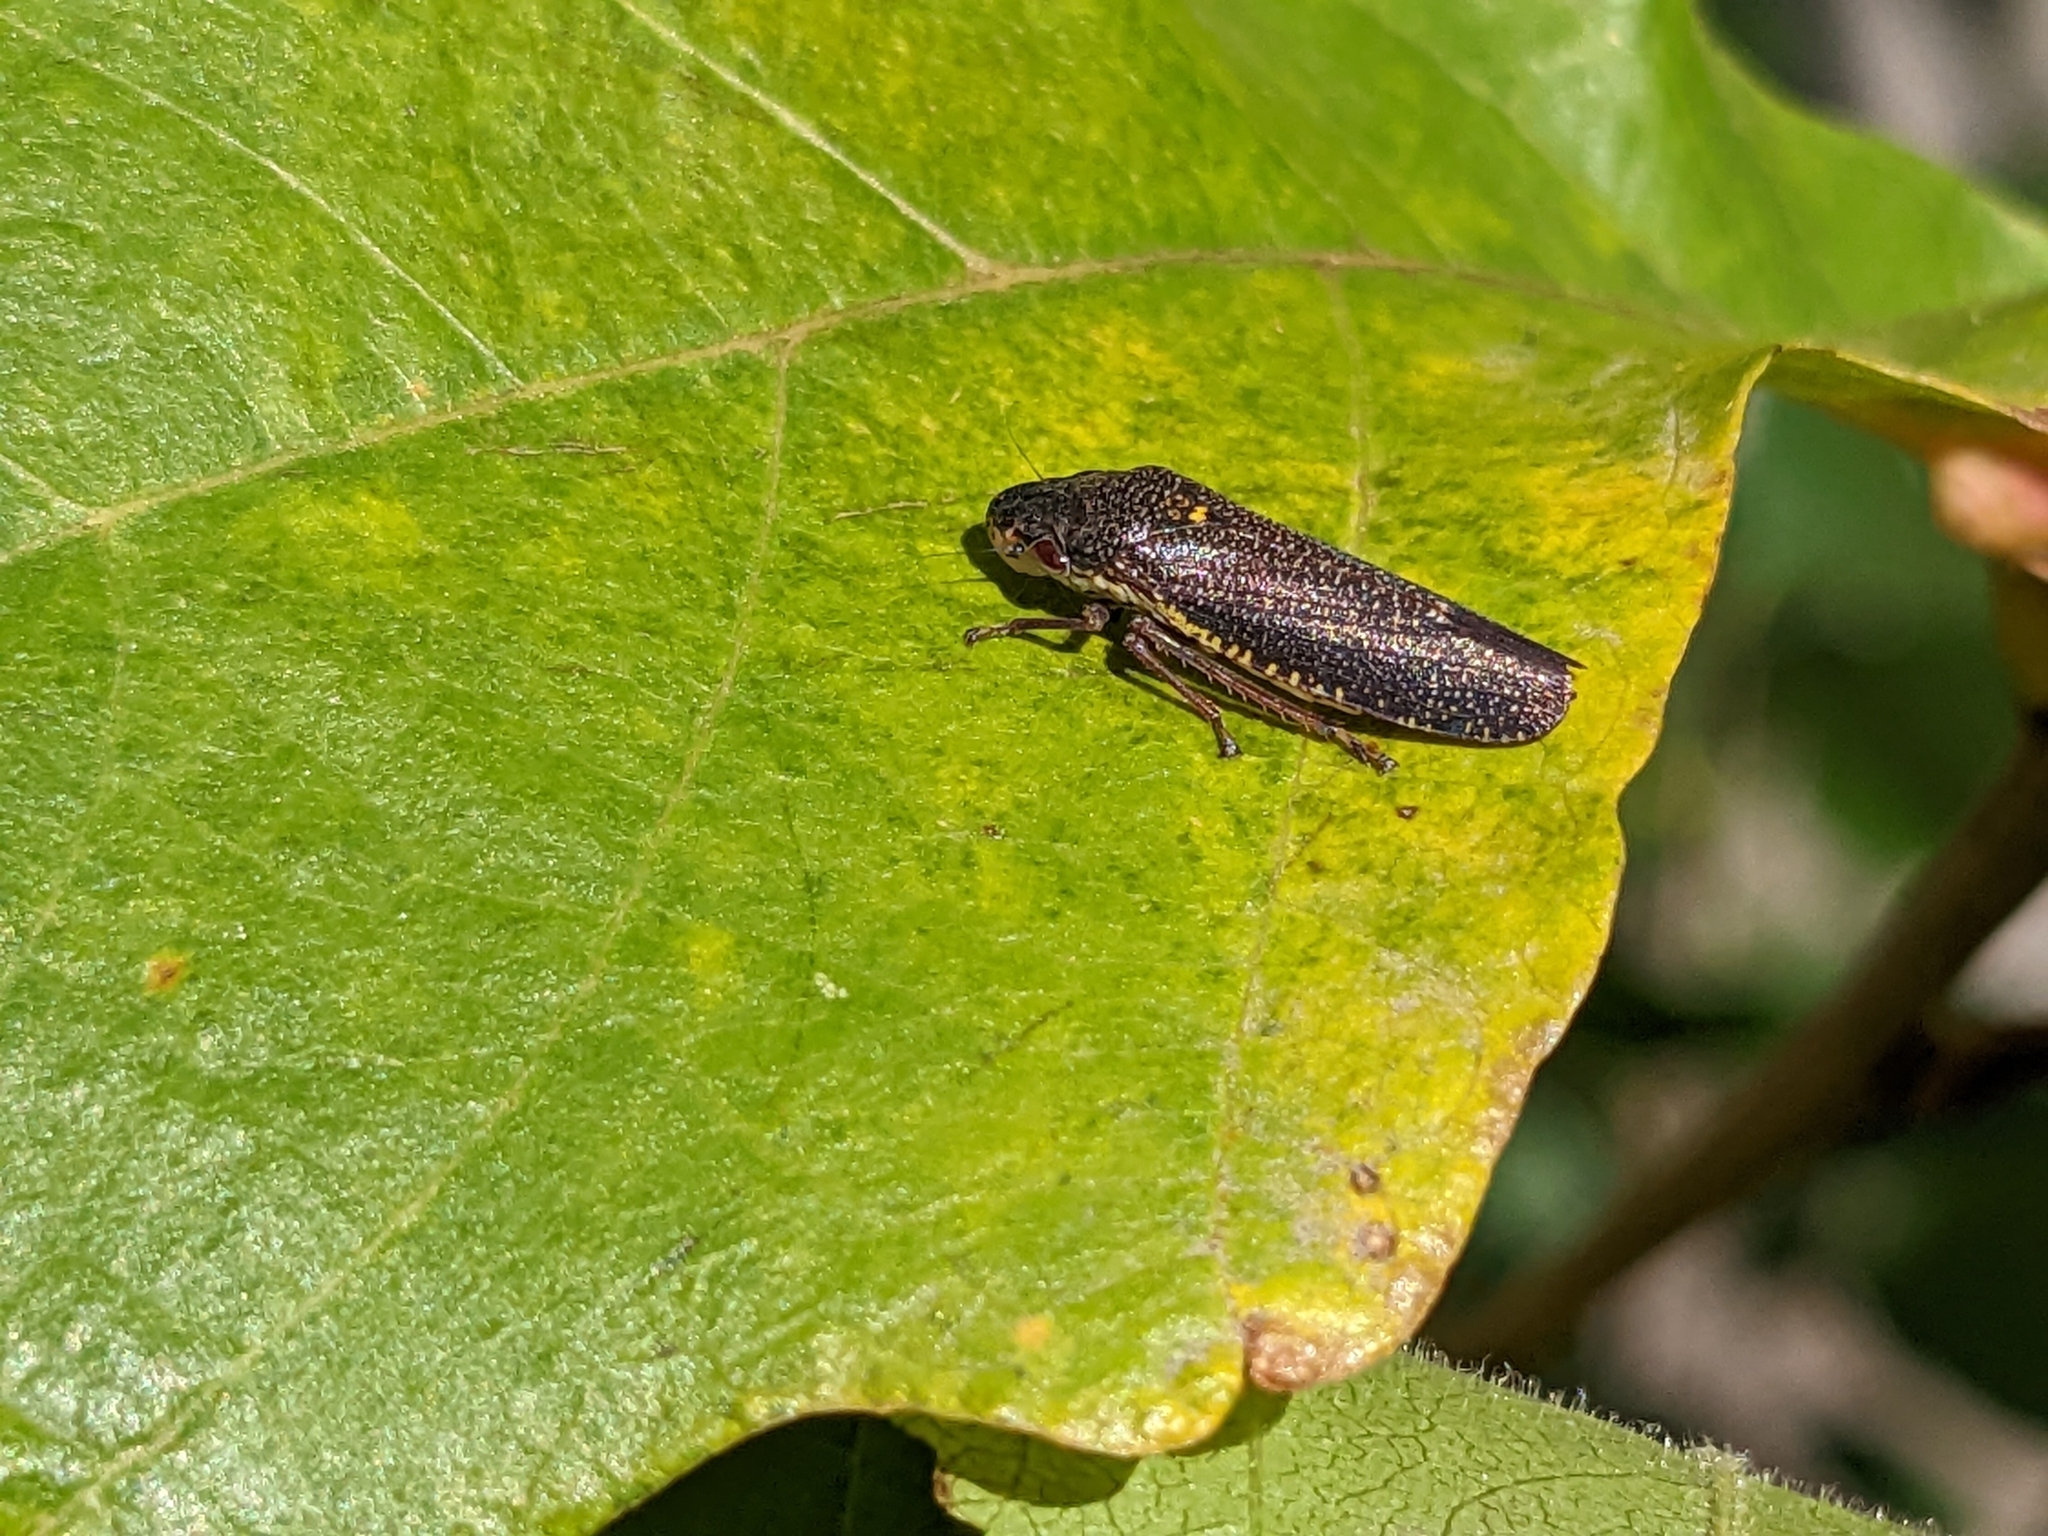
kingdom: Animalia
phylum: Arthropoda
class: Insecta
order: Hemiptera
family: Cicadellidae
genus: Paraulacizes
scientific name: Paraulacizes irrorata
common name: Speckled sharpshooter
